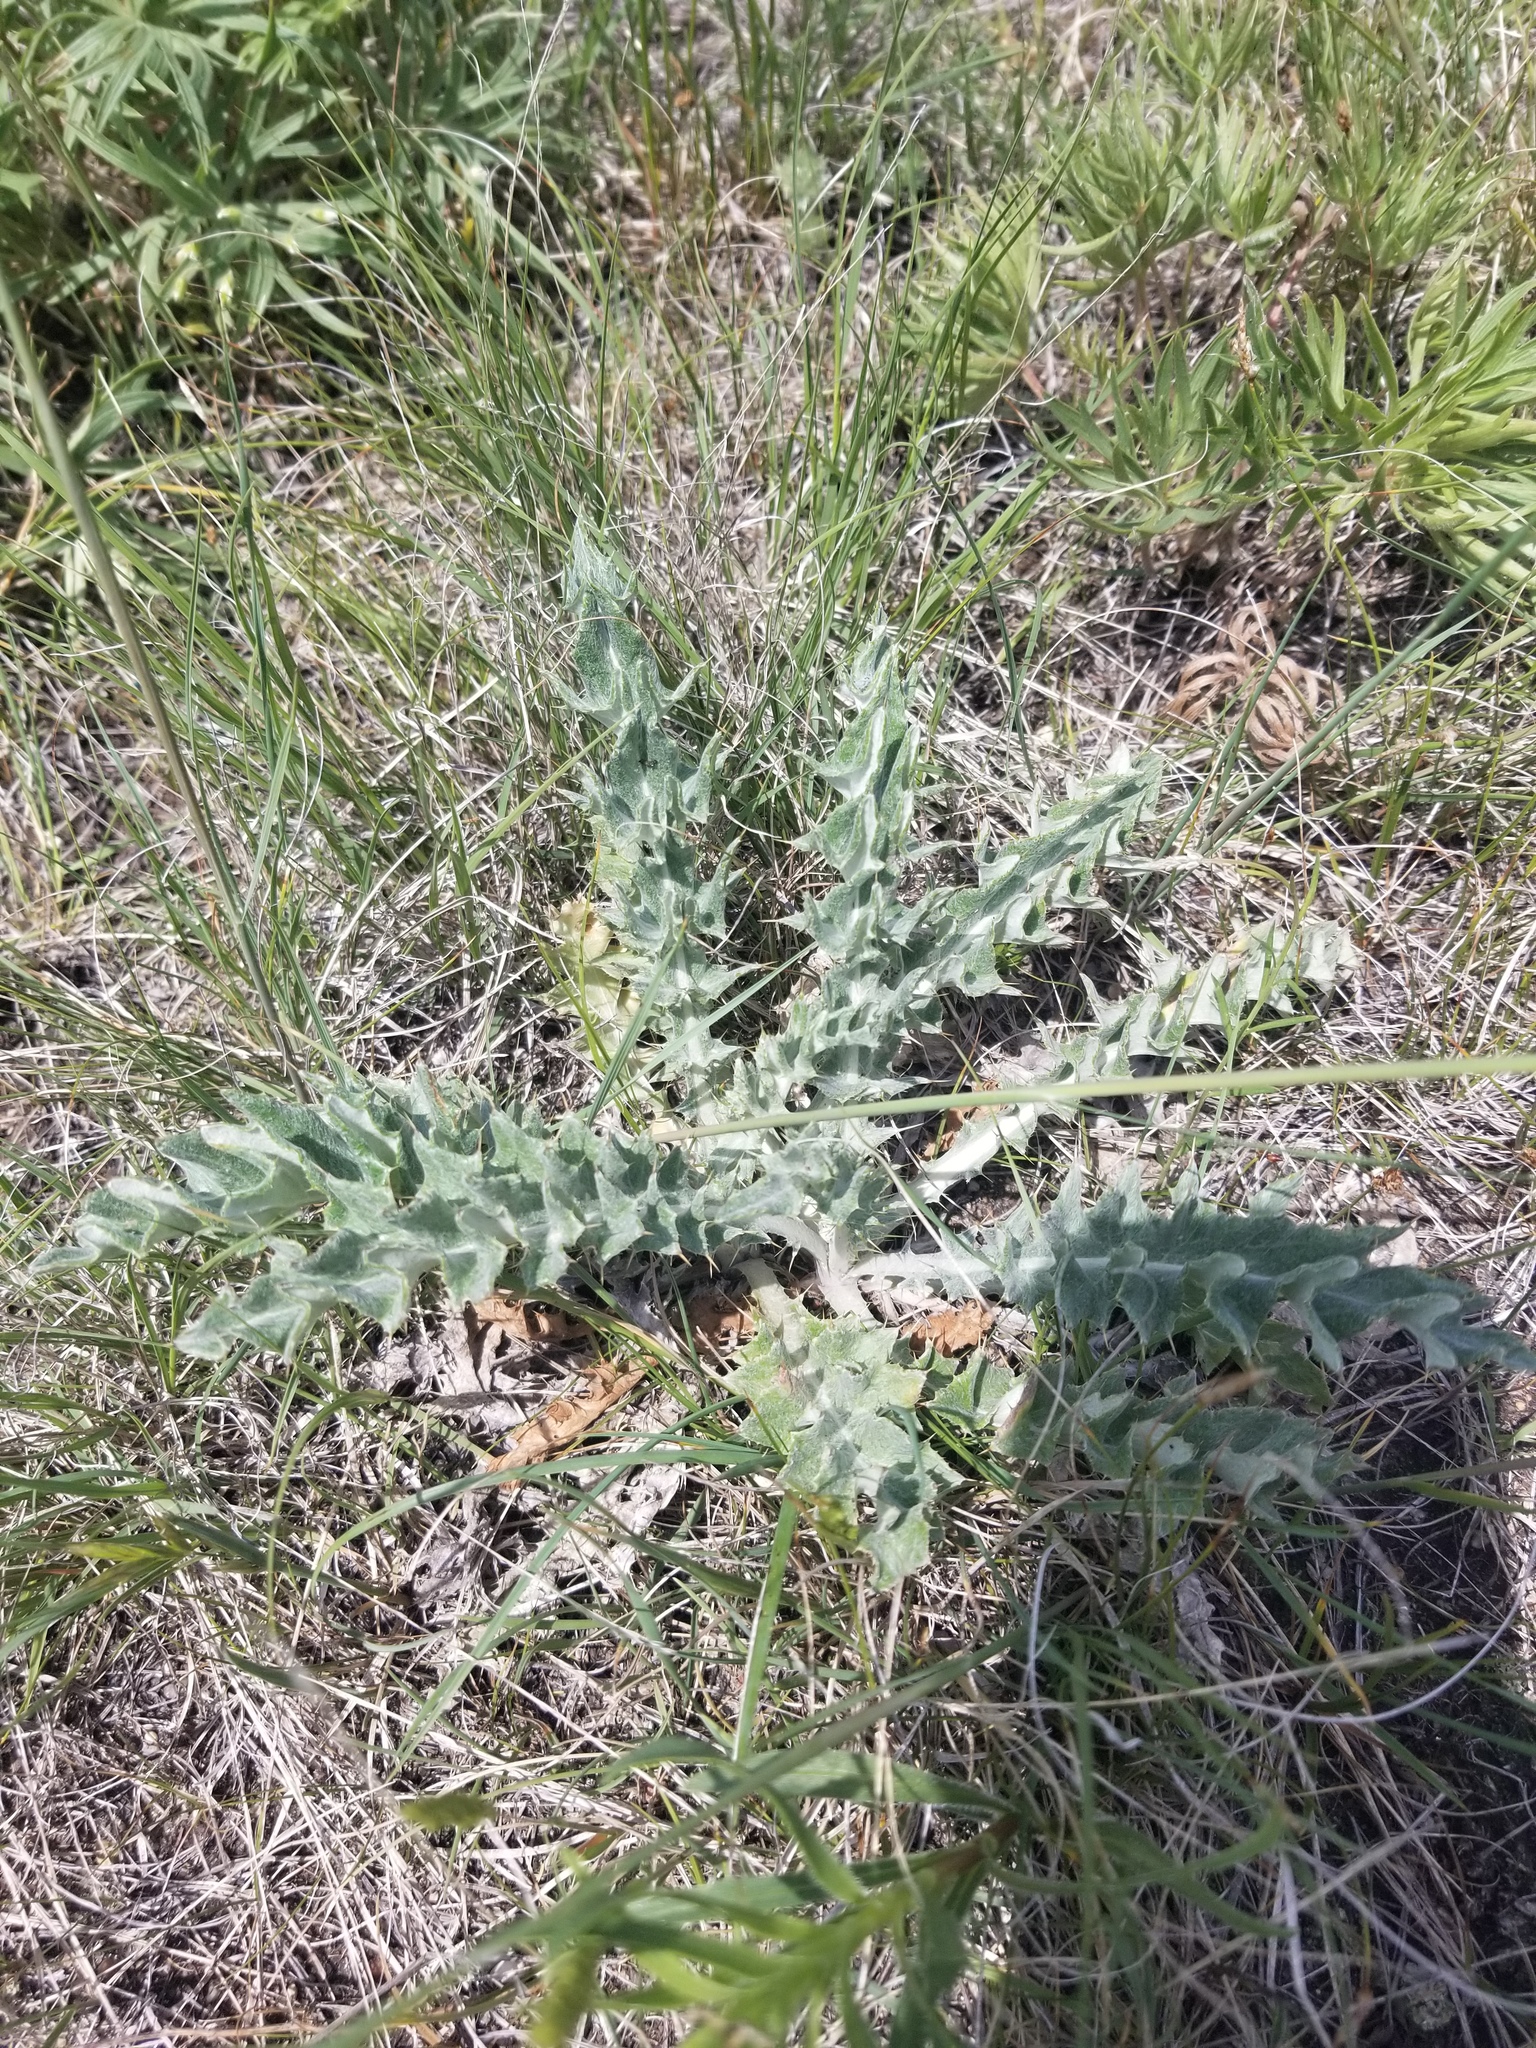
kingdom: Plantae
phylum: Tracheophyta
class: Magnoliopsida
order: Asterales
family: Asteraceae
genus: Cirsium
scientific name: Cirsium flodmanii
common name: Flodman's thistle
